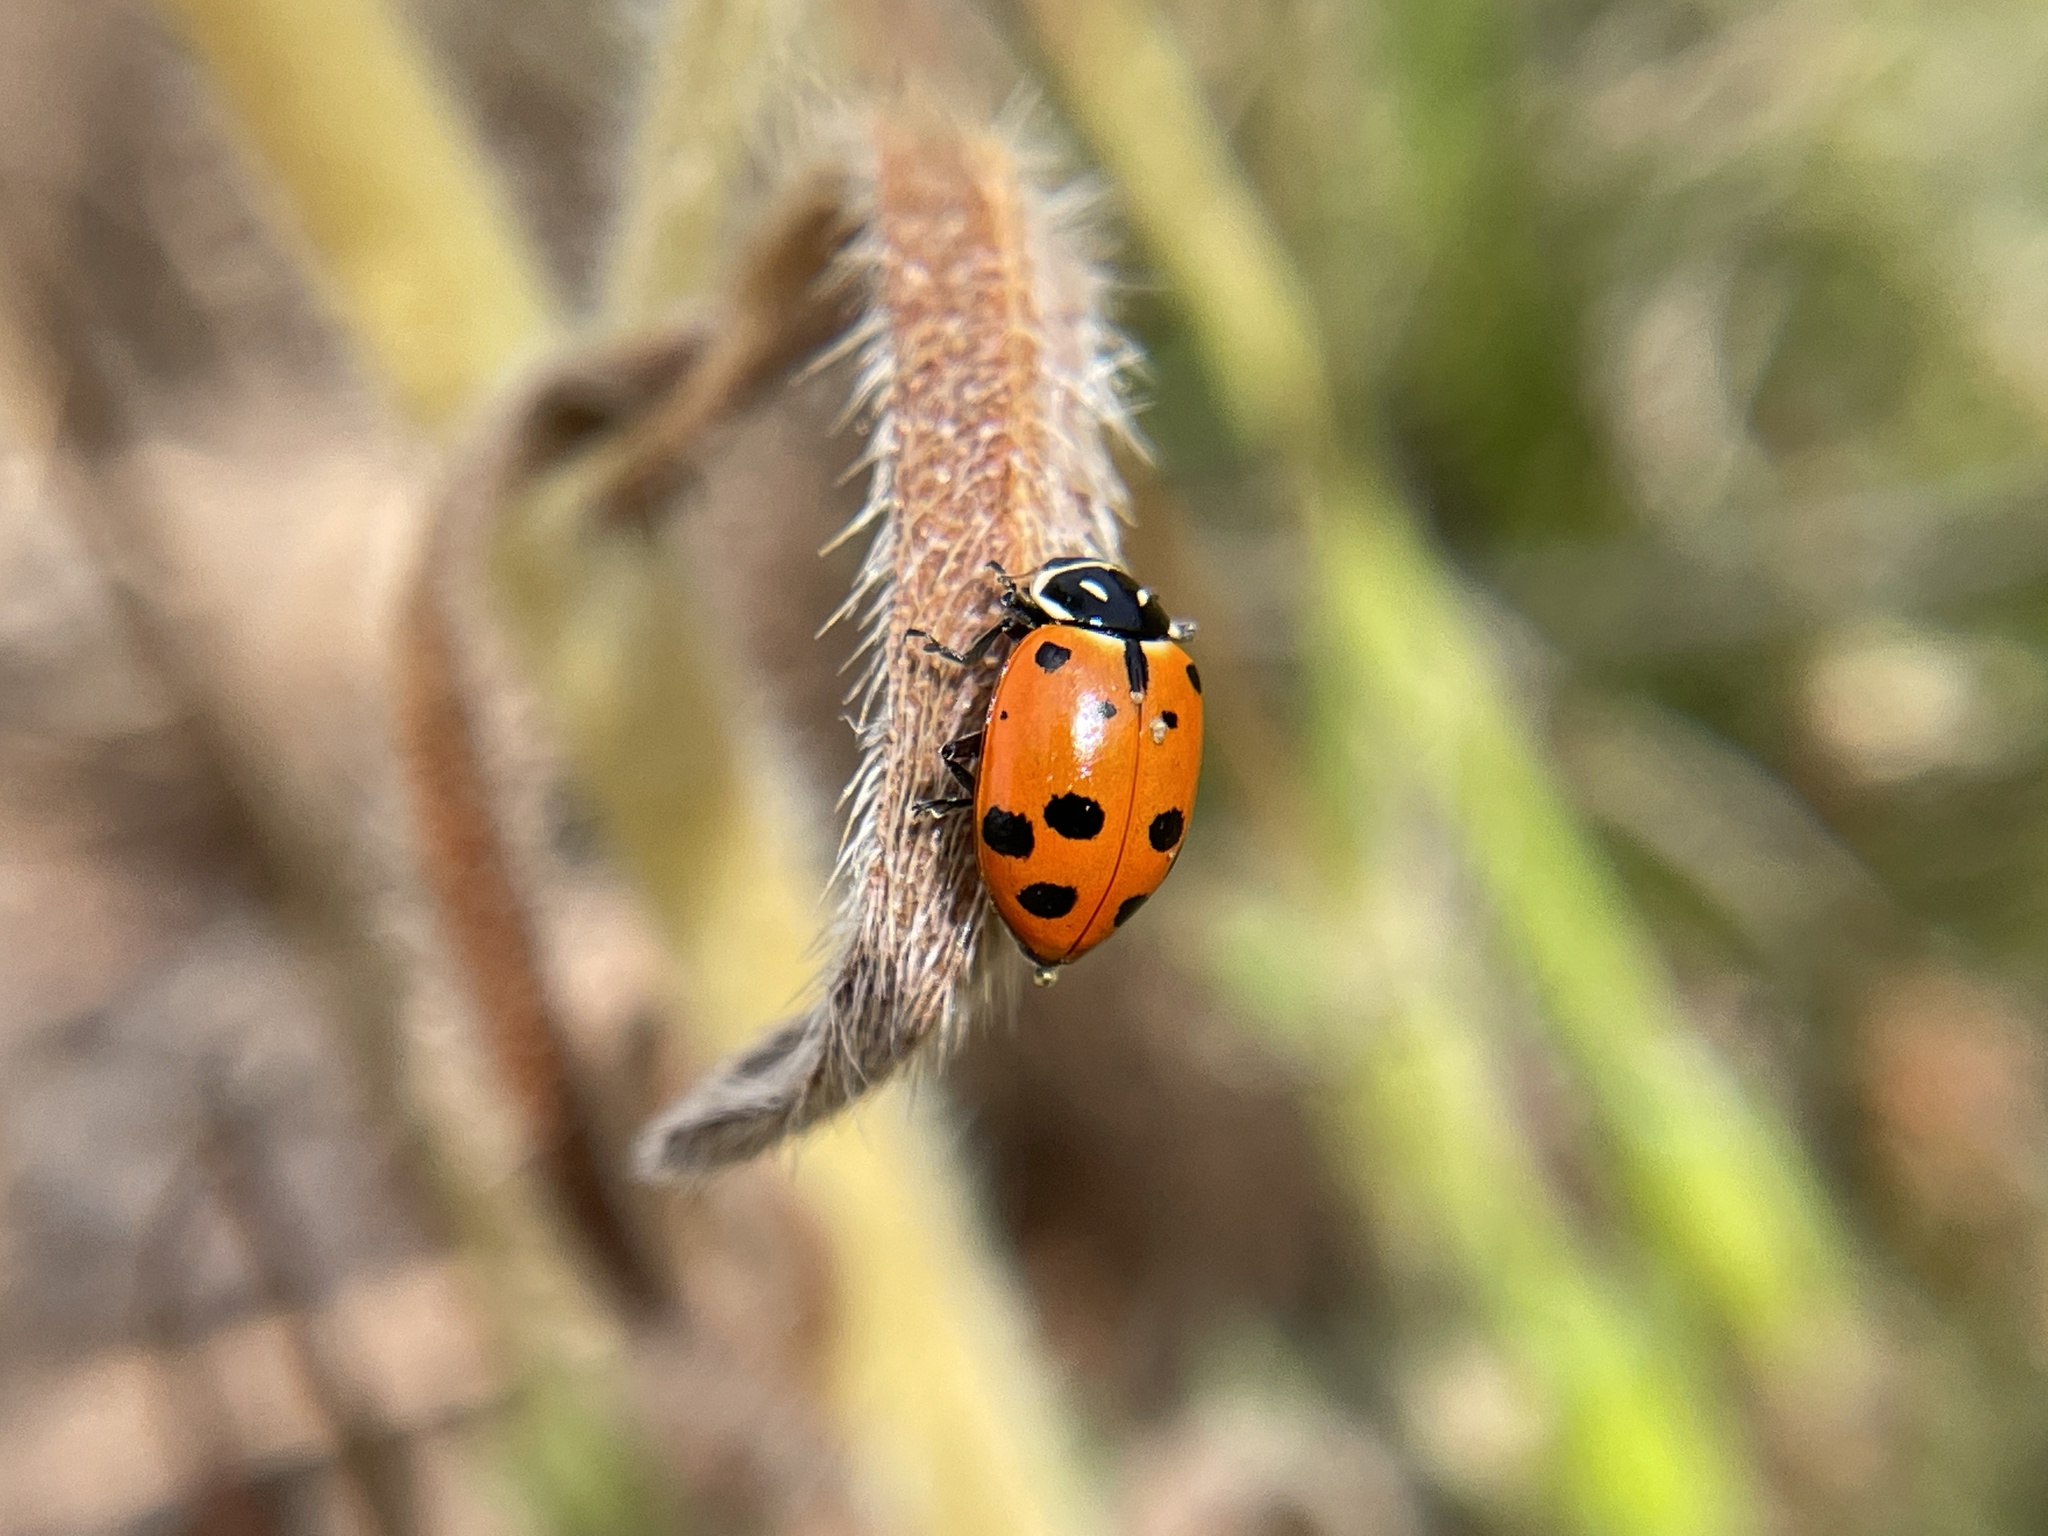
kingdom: Animalia
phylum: Arthropoda
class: Insecta
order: Coleoptera
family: Coccinellidae
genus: Hippodamia
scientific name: Hippodamia convergens
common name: Convergent lady beetle
